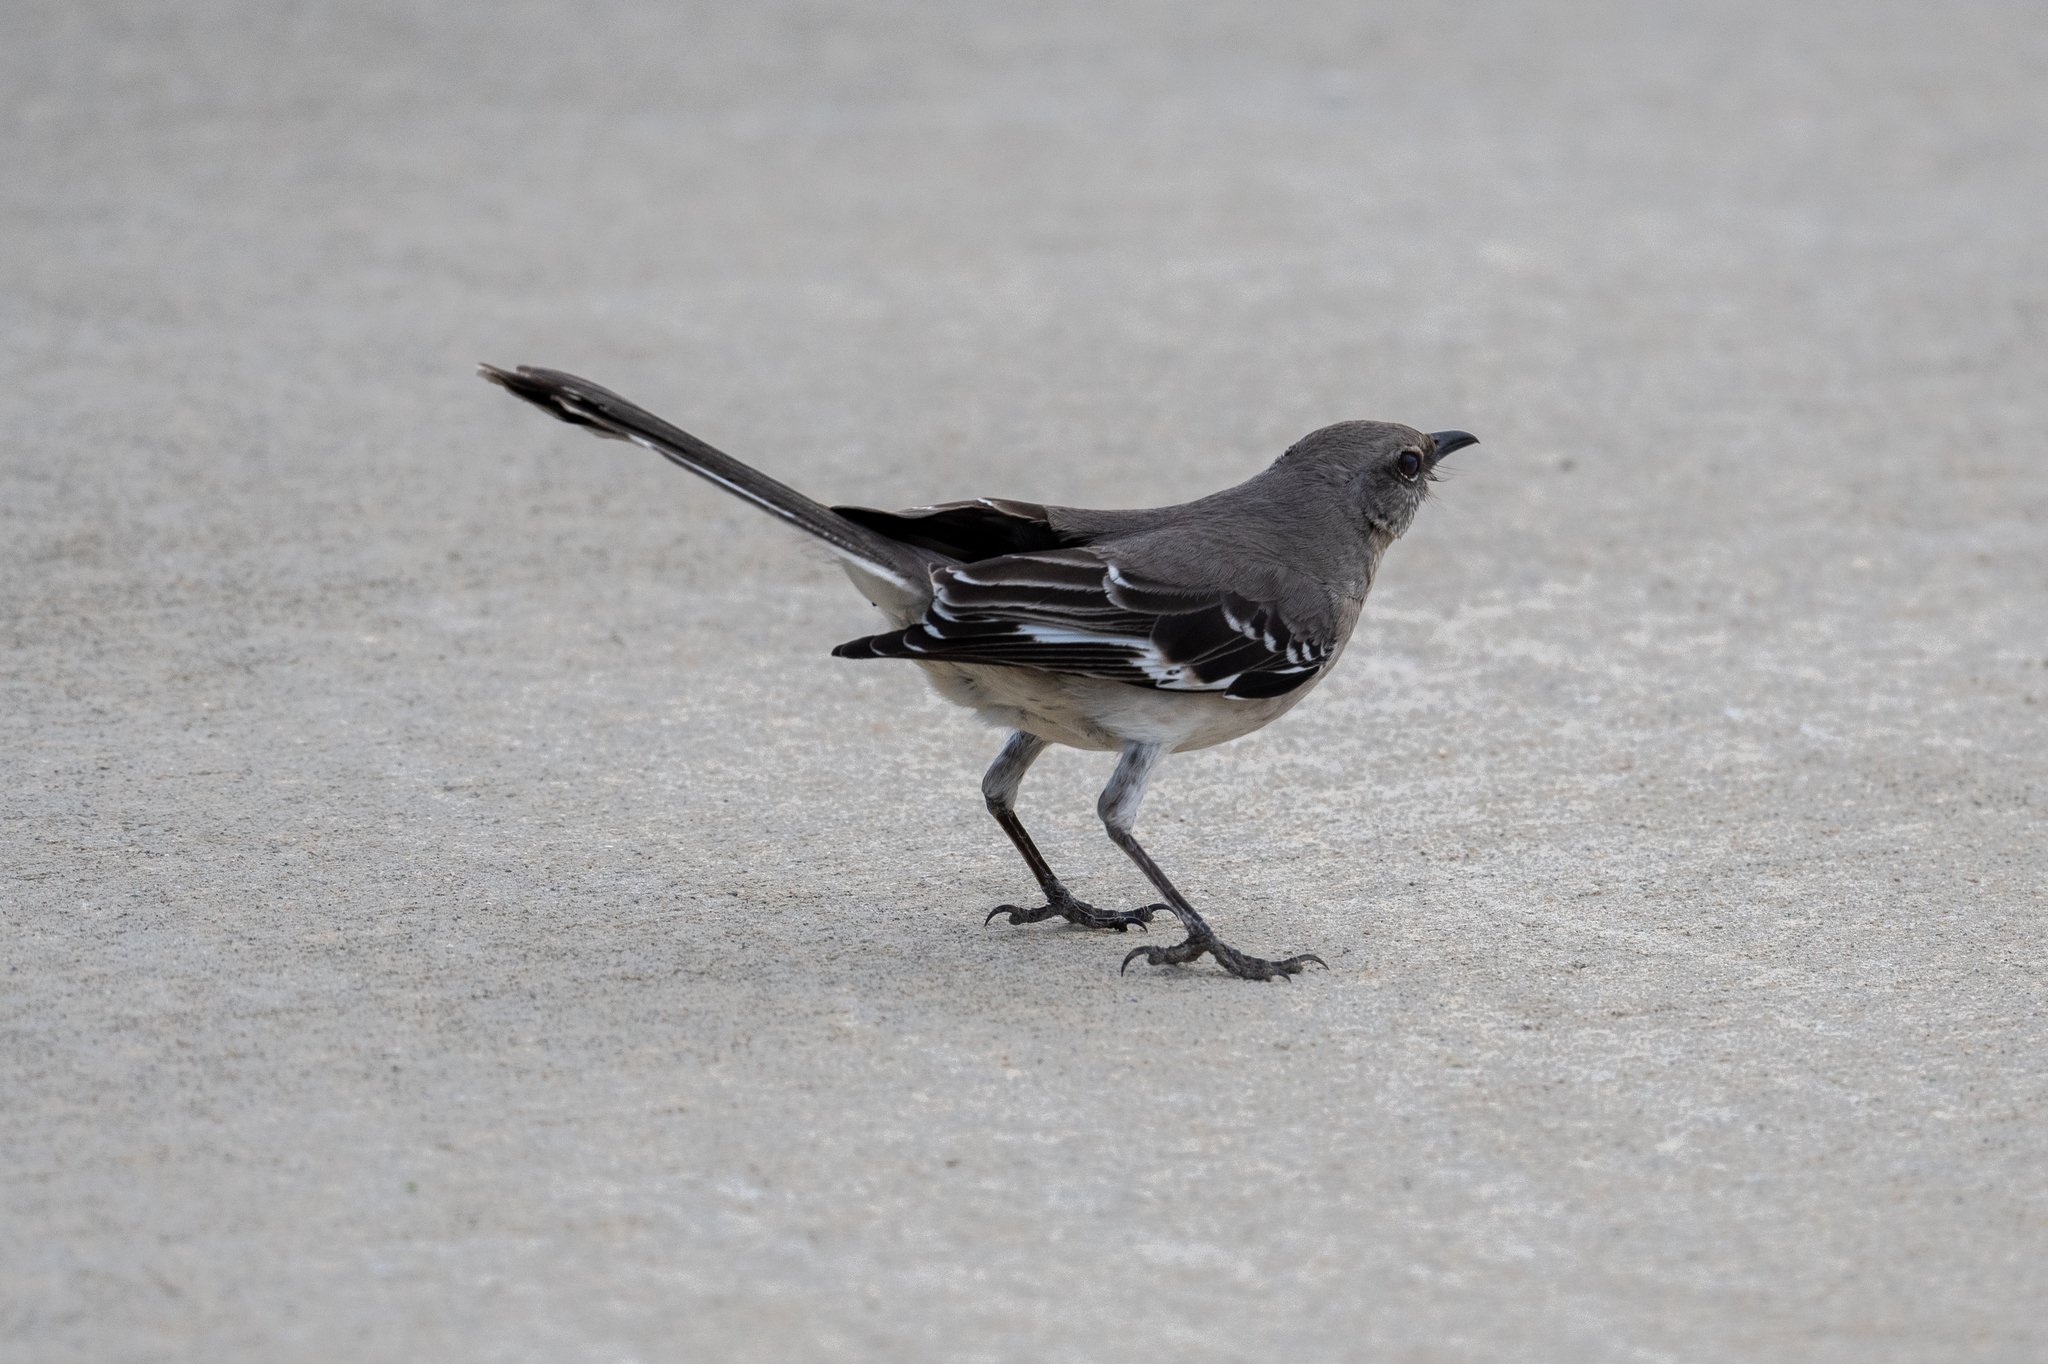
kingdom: Animalia
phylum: Chordata
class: Aves
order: Passeriformes
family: Mimidae
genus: Mimus
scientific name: Mimus polyglottos
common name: Northern mockingbird
